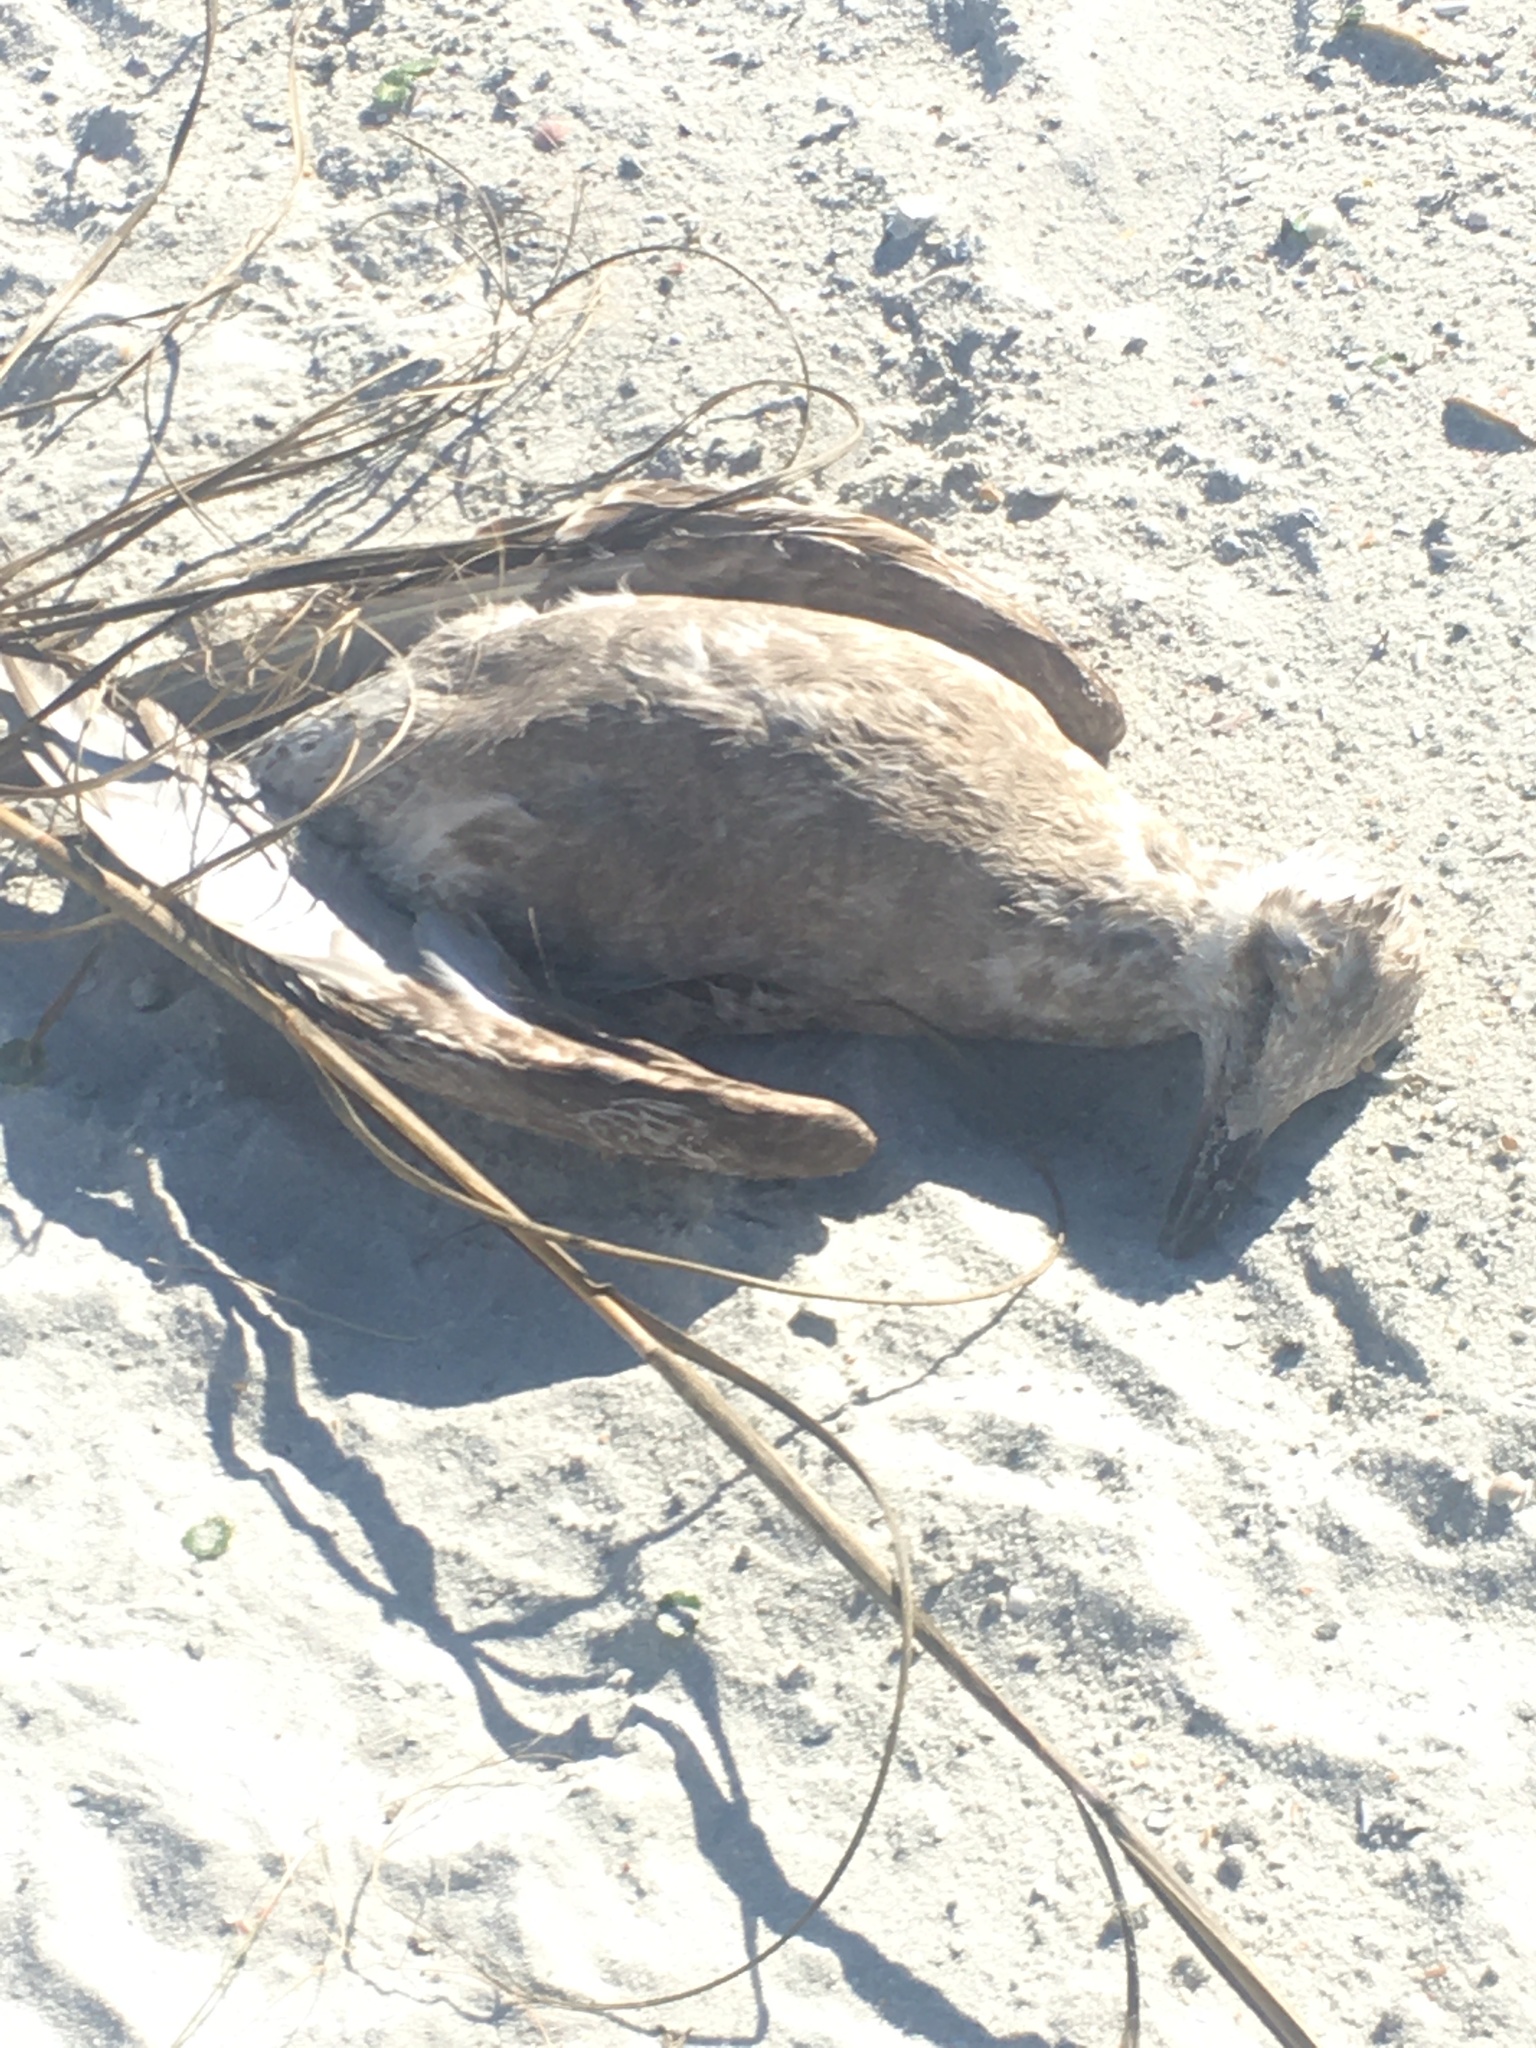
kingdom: Animalia
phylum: Chordata
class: Aves
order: Charadriiformes
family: Laridae
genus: Larus
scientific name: Larus argentatus
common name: Herring gull
